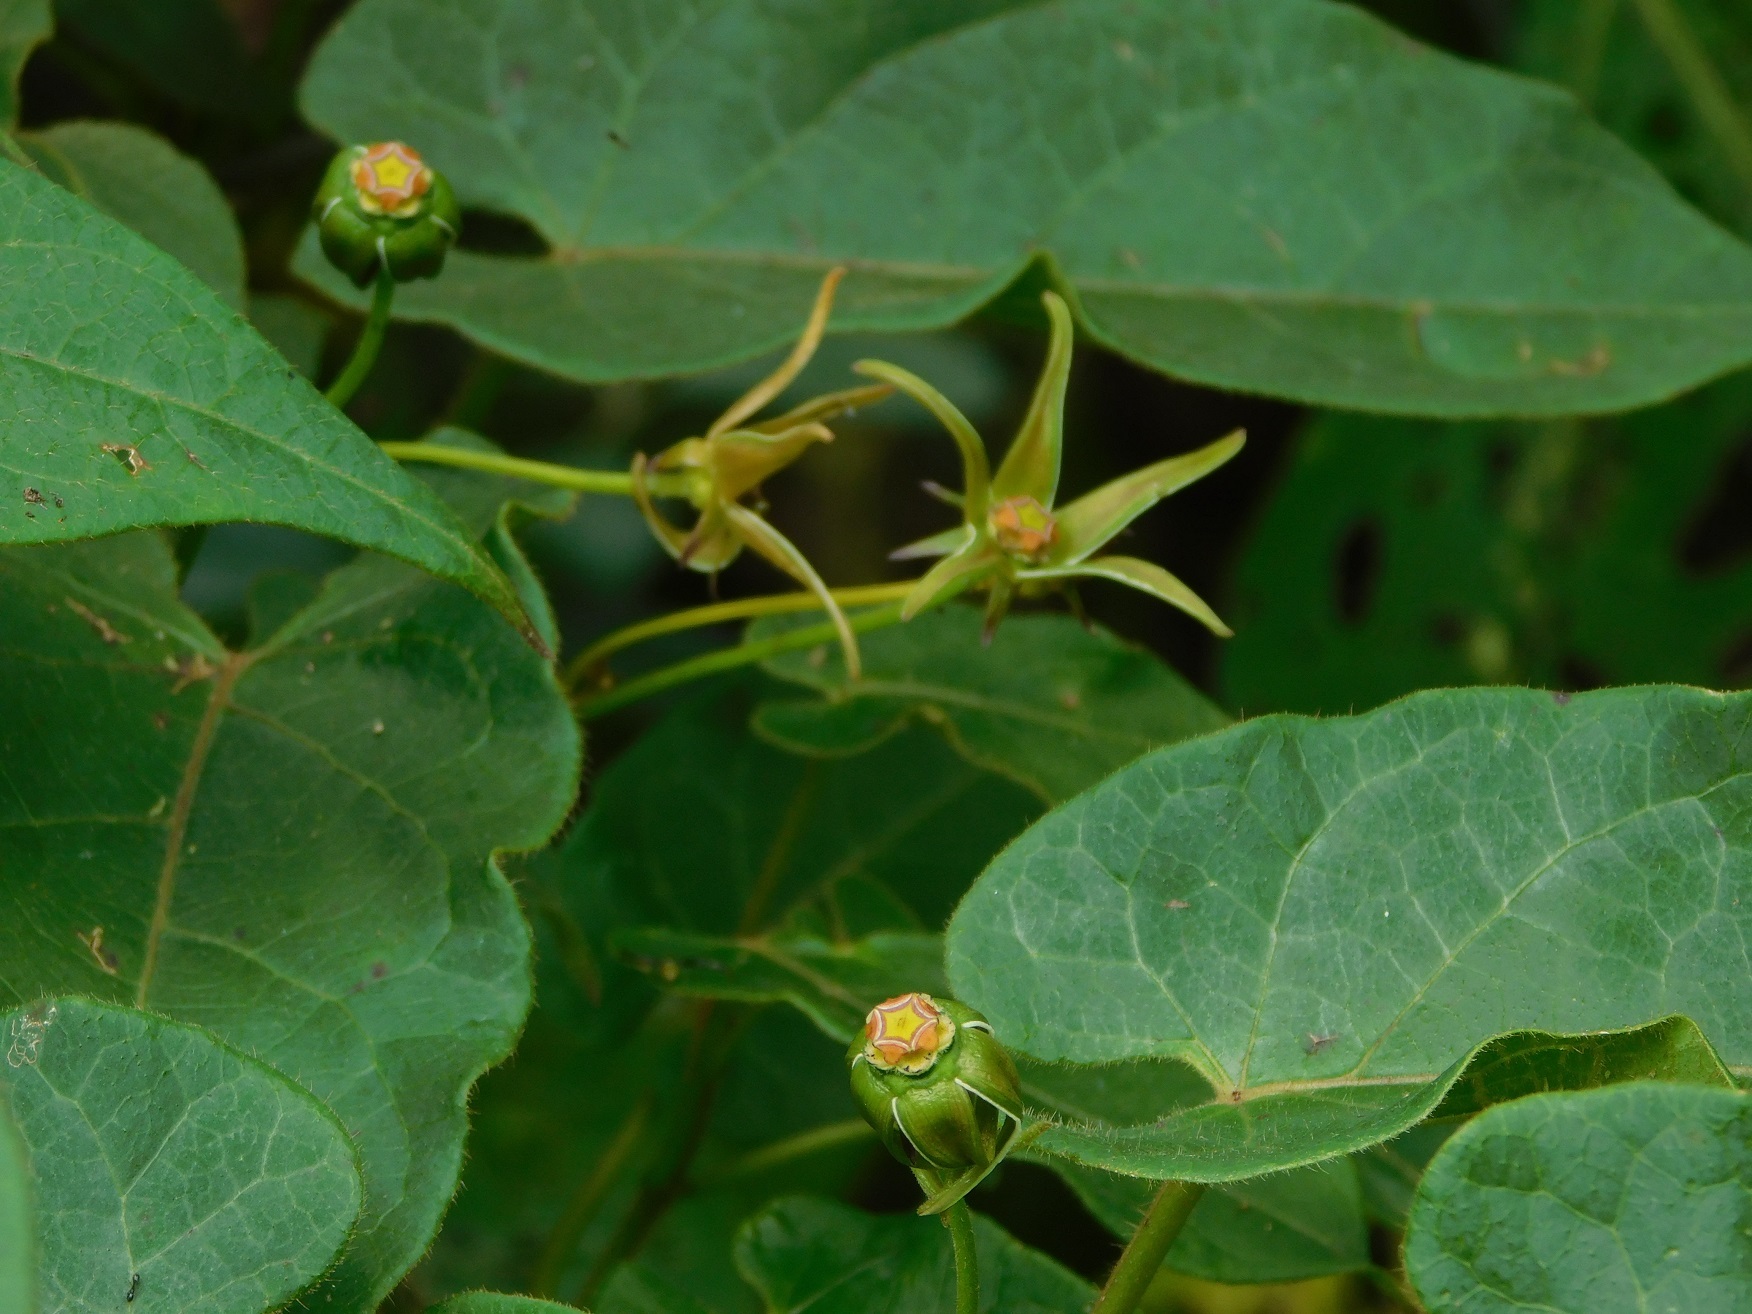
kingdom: Plantae
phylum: Tracheophyta
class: Magnoliopsida
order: Gentianales
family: Apocynaceae
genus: Gonolobus
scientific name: Gonolobus breedlovei
